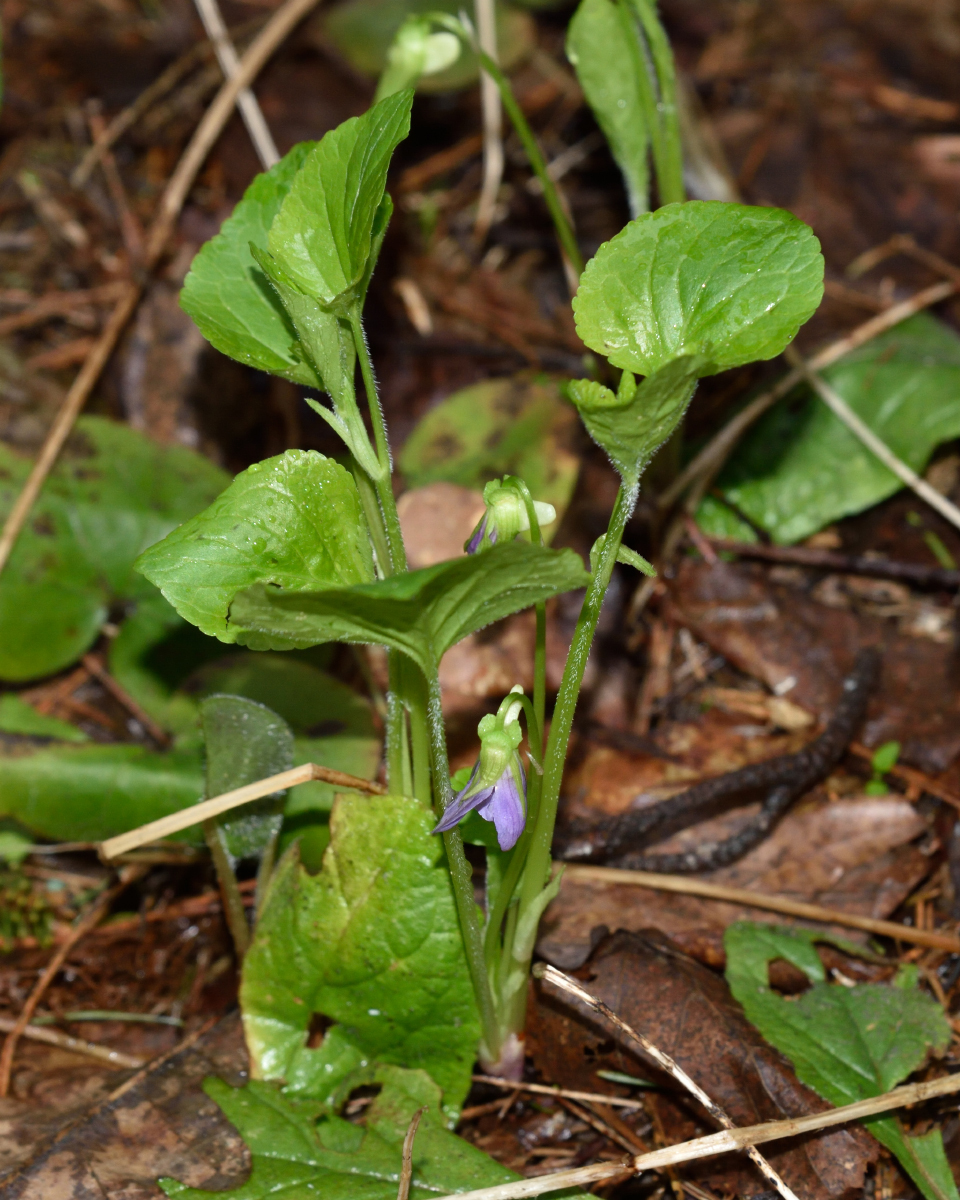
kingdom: Plantae
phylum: Tracheophyta
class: Magnoliopsida
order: Malpighiales
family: Violaceae
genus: Viola
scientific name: Viola mirabilis
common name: Wonder violet
